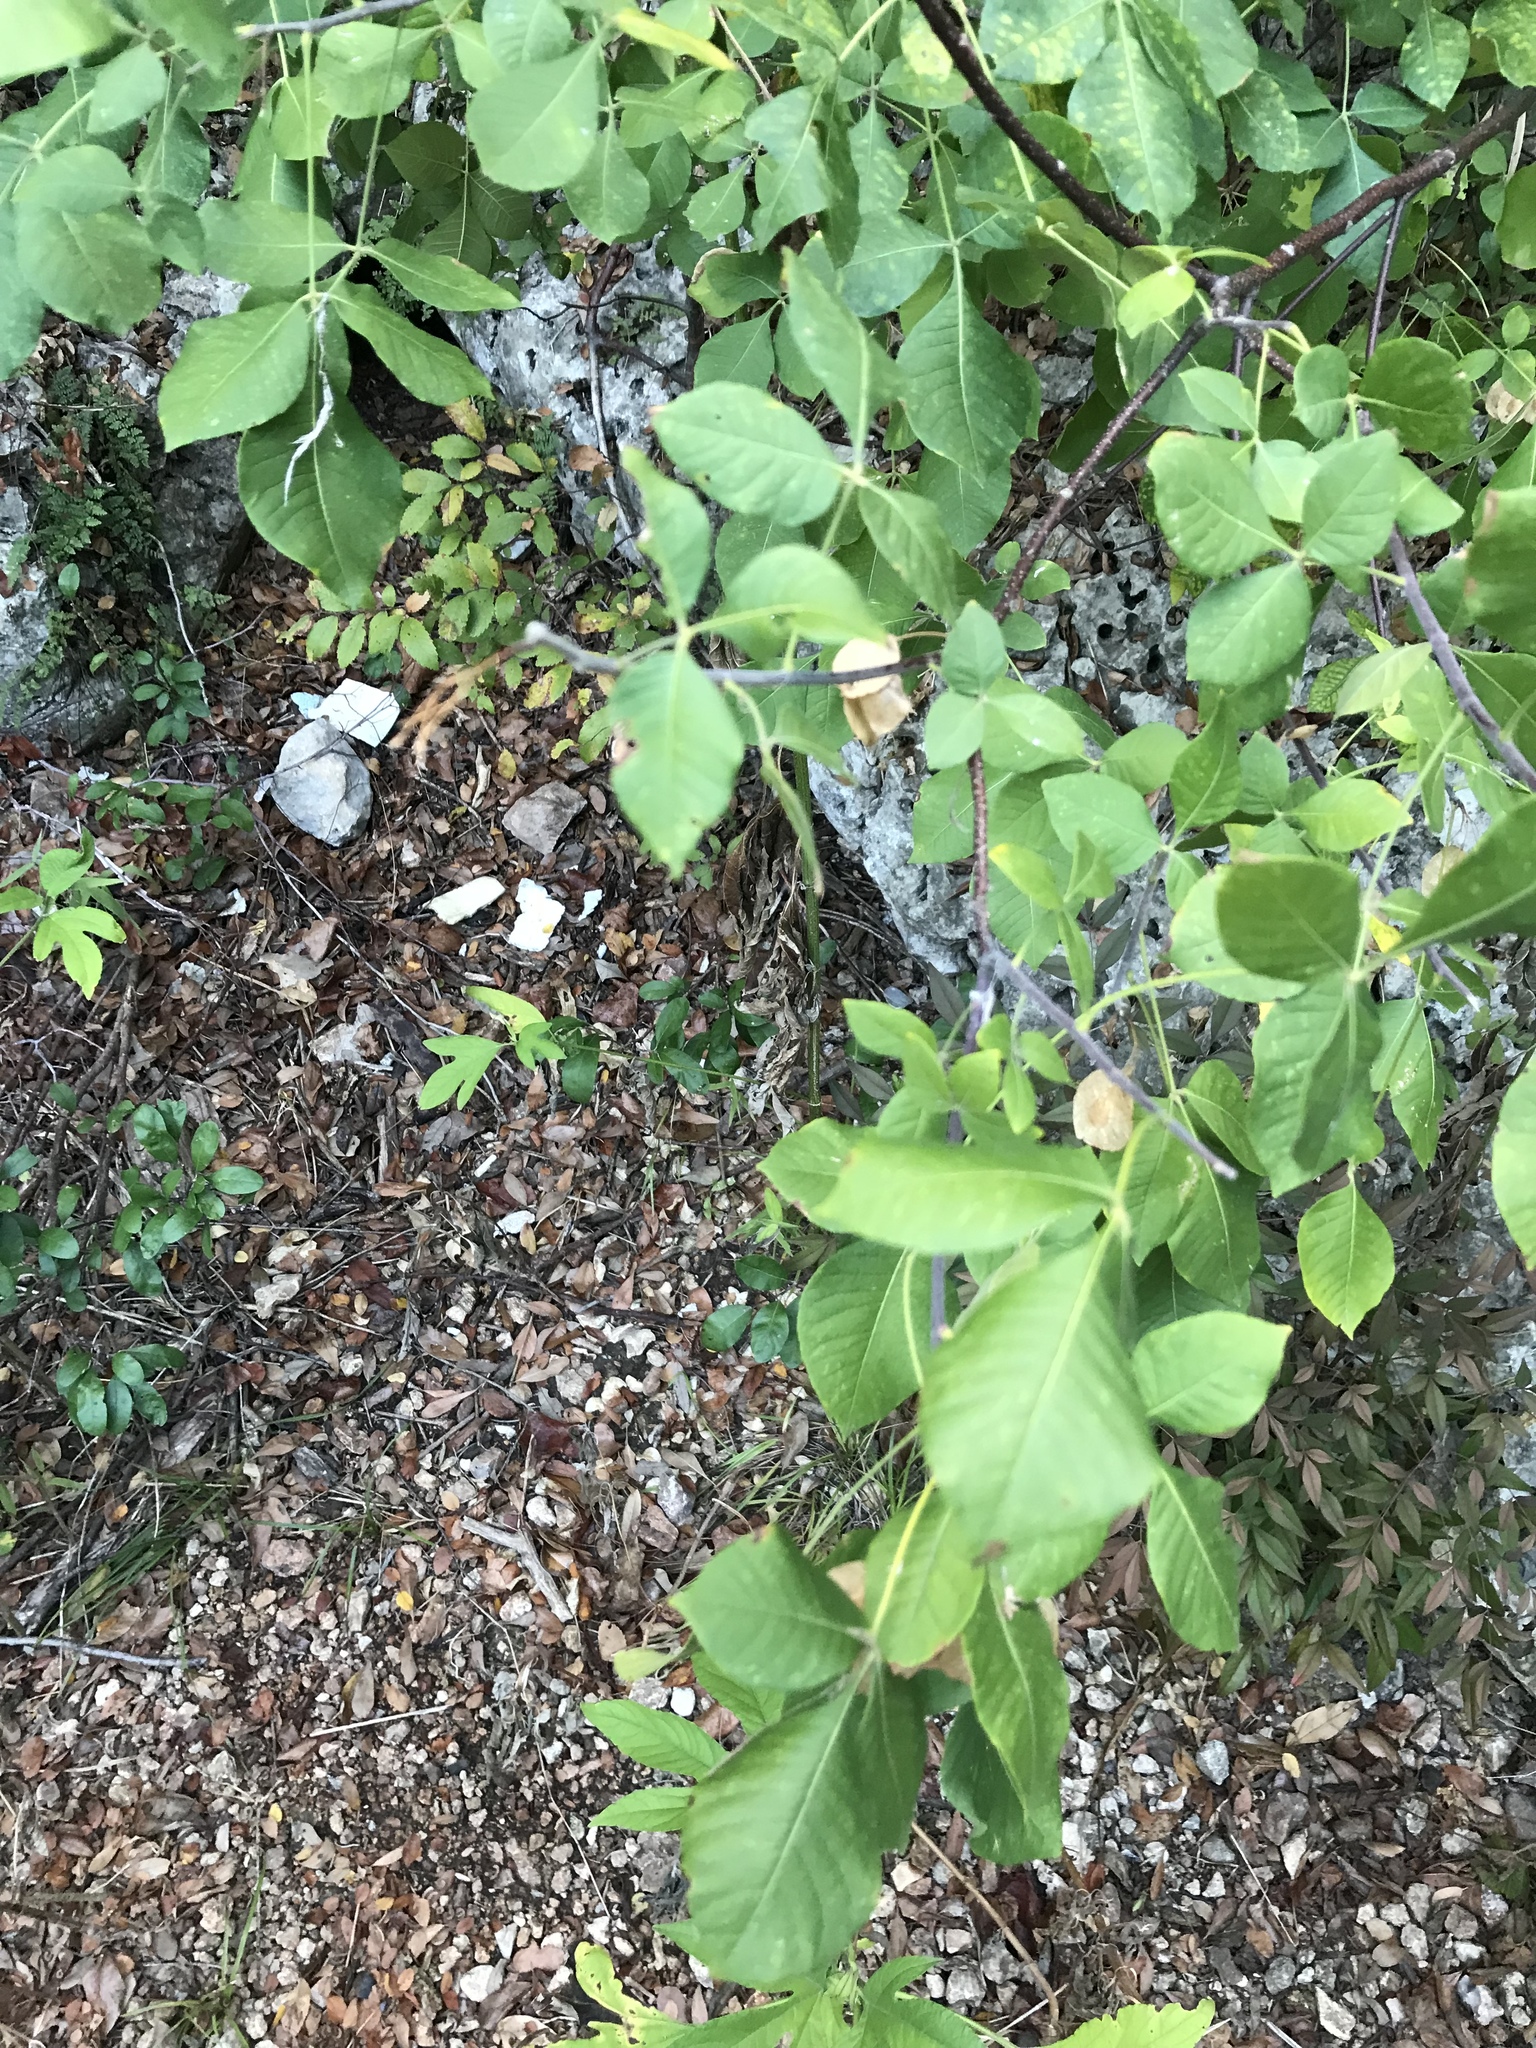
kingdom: Plantae
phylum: Tracheophyta
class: Magnoliopsida
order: Sapindales
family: Rutaceae
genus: Ptelea
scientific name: Ptelea trifoliata
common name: Common hop-tree
